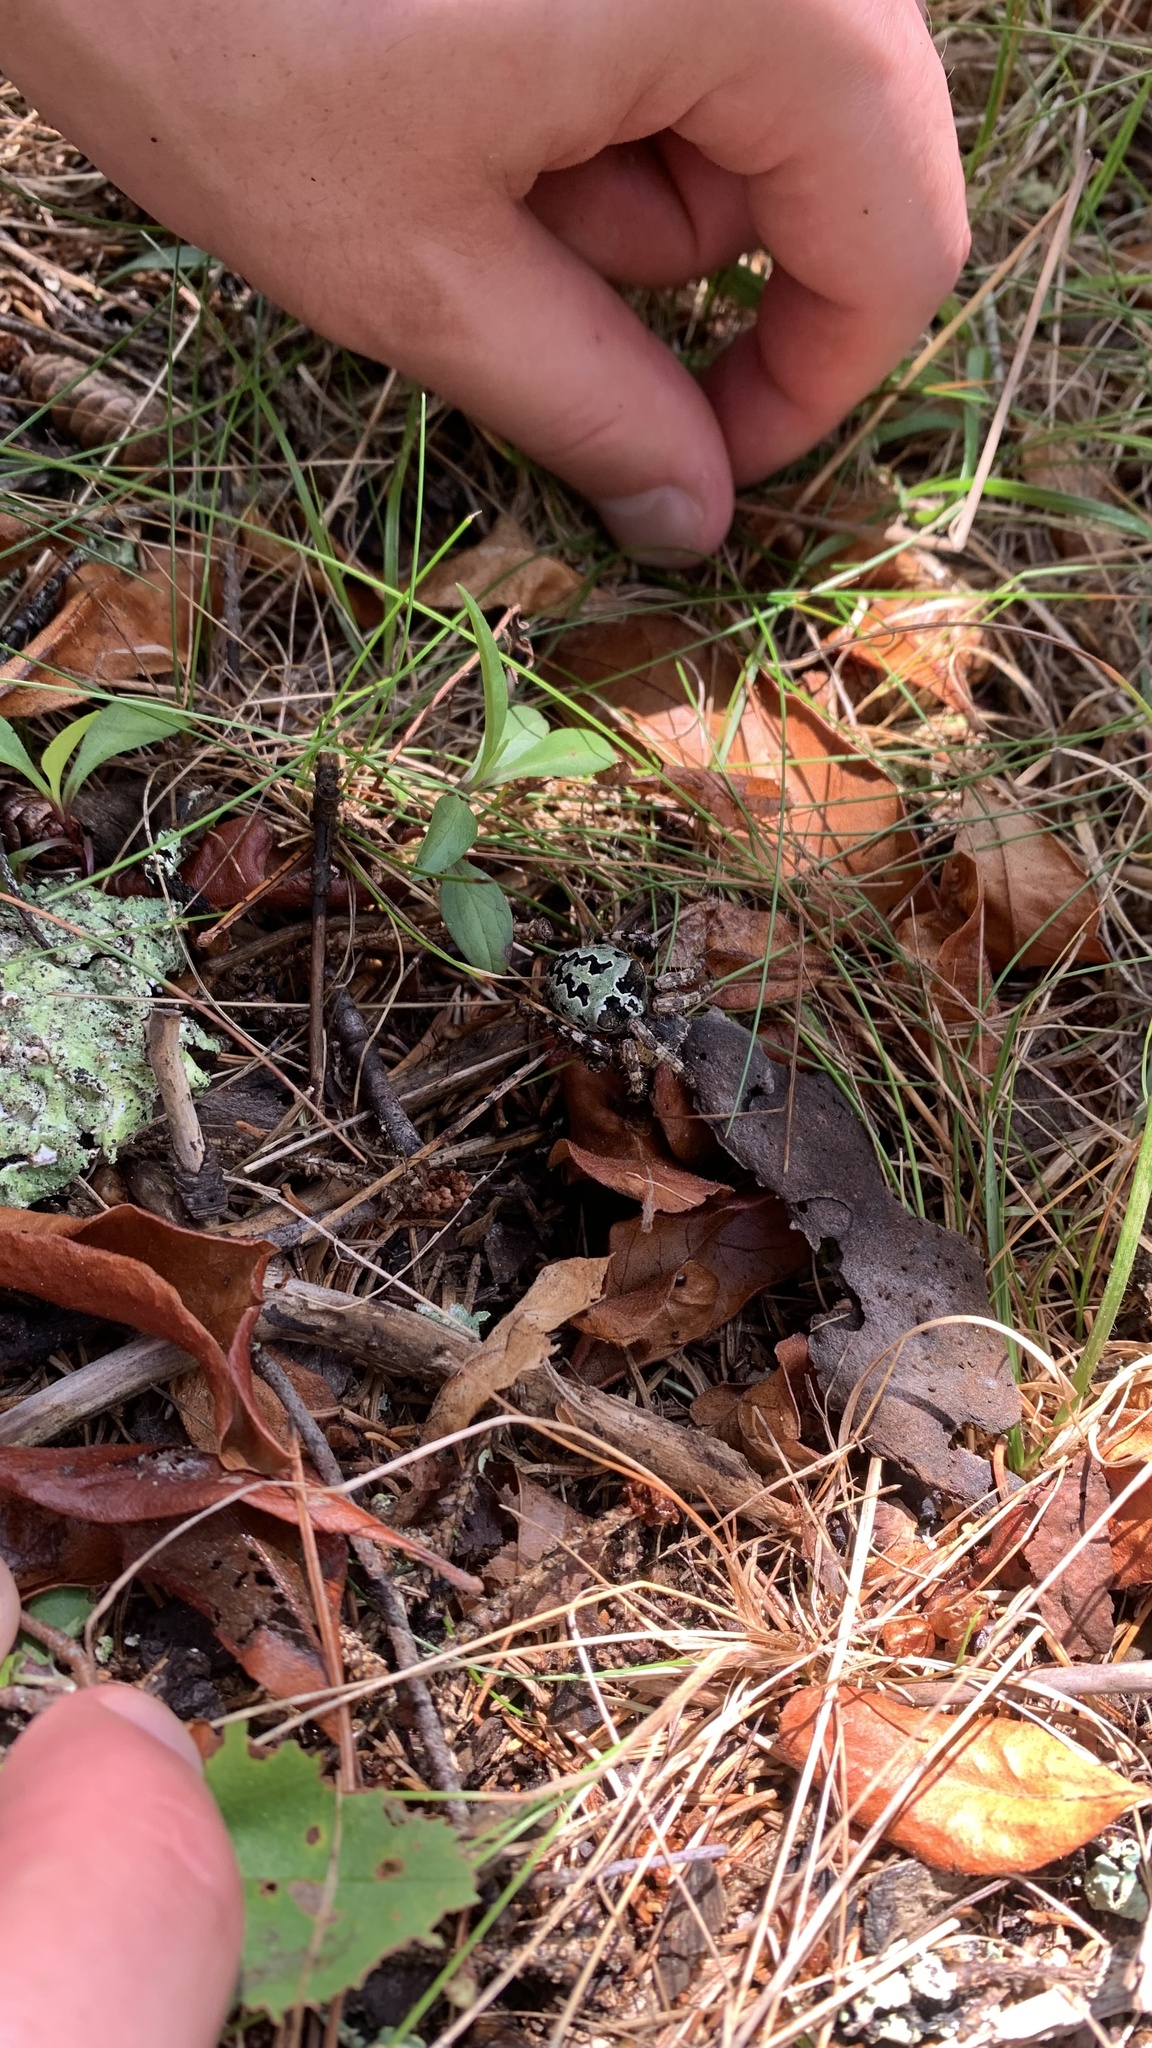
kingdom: Animalia
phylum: Arthropoda
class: Arachnida
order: Araneae
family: Araneidae
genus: Araneus
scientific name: Araneus bicentenarius
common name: Giant lichen orbweaver
